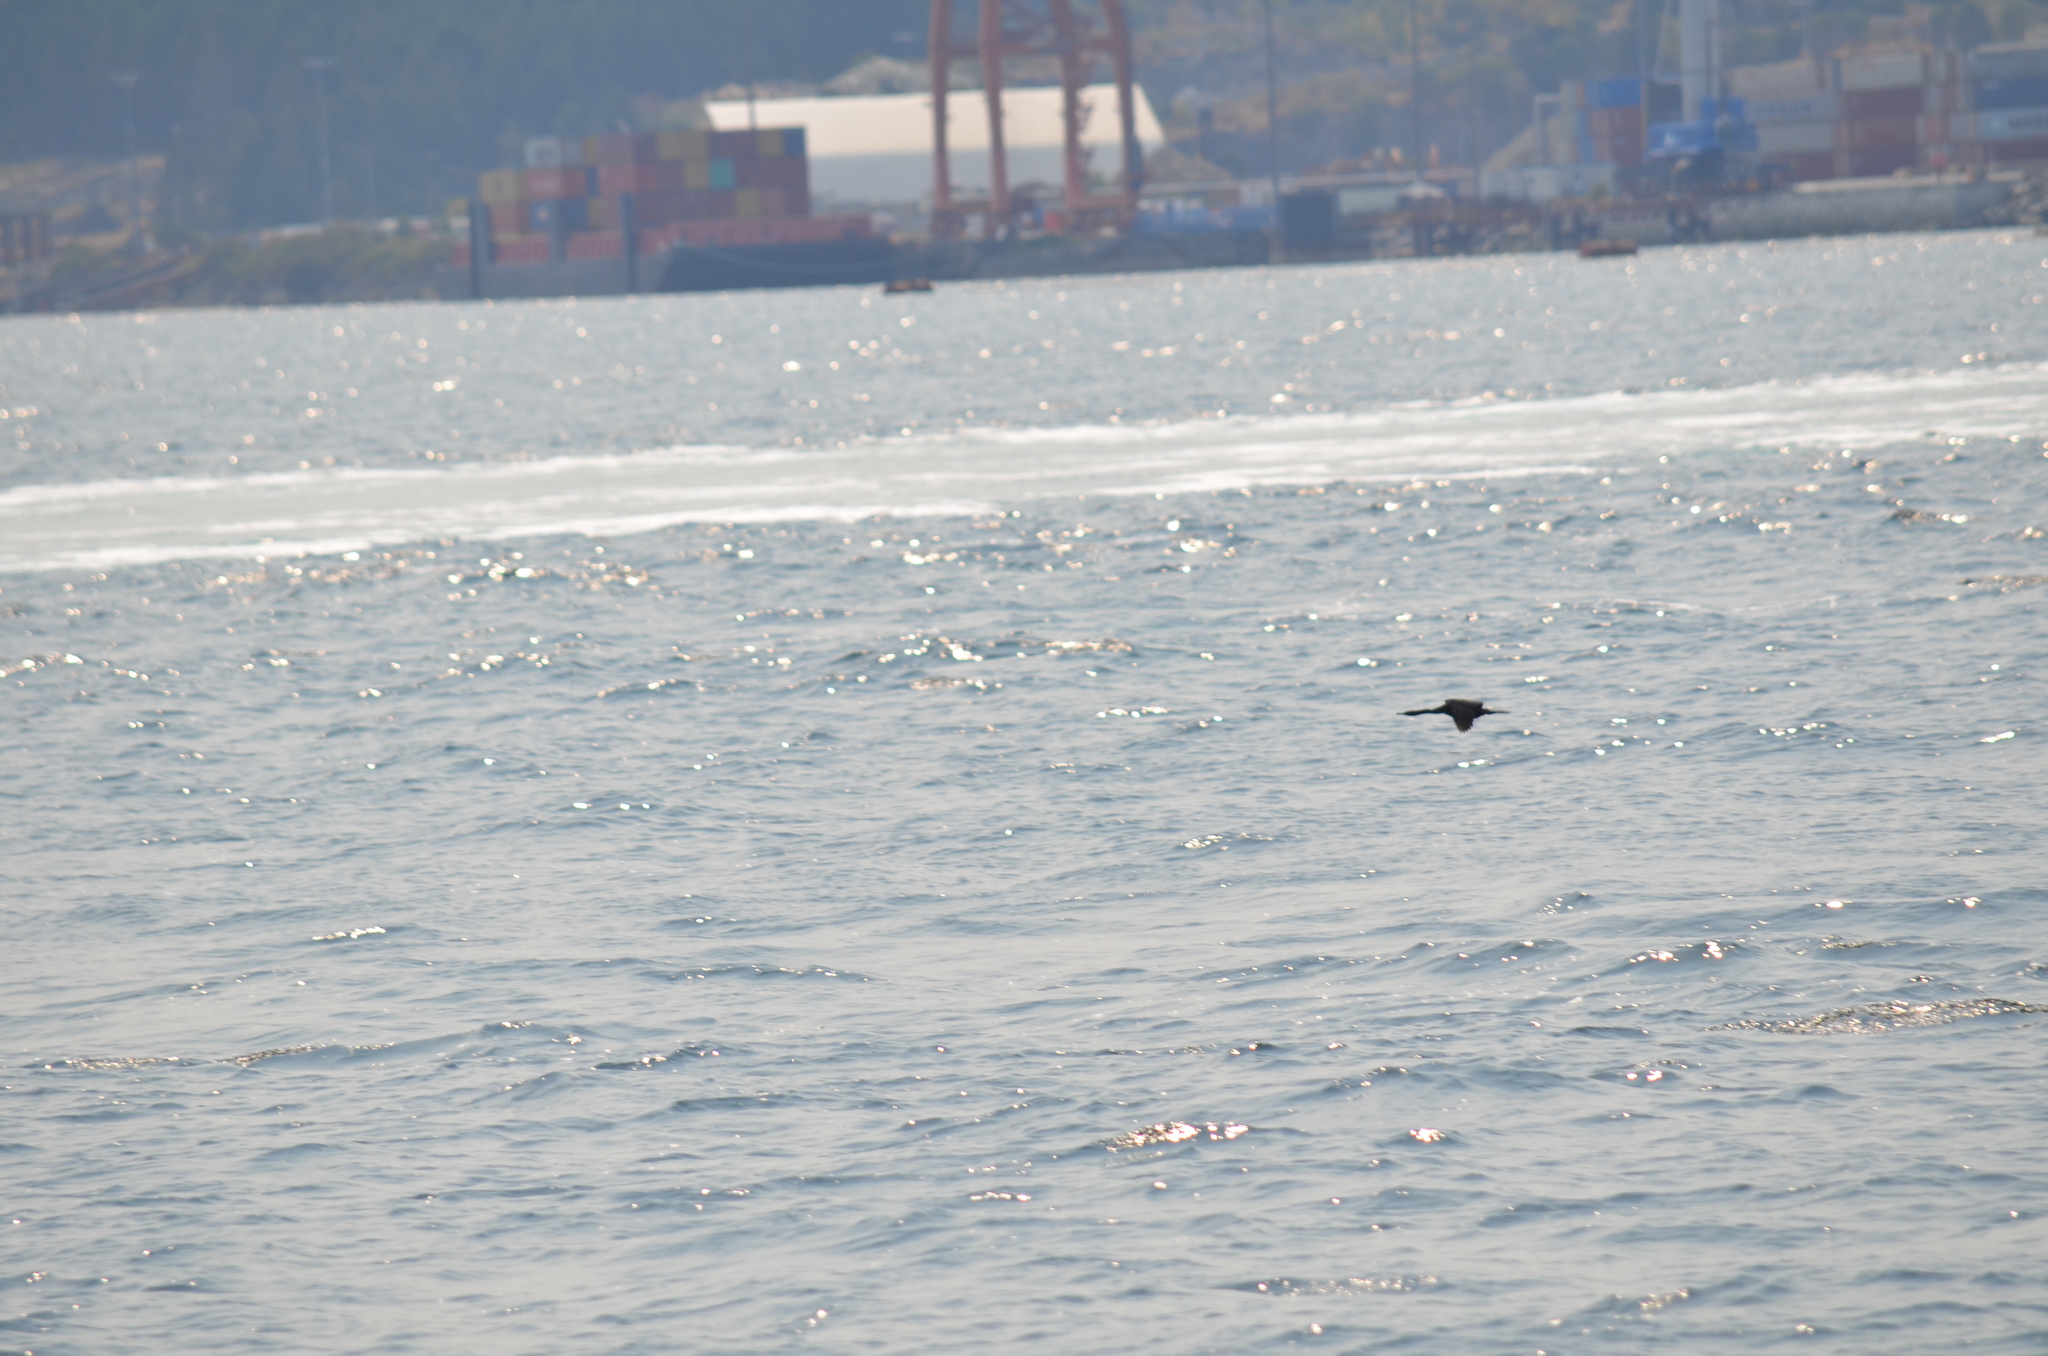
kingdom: Animalia
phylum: Chordata
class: Aves
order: Suliformes
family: Phalacrocoracidae
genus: Phalacrocorax
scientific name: Phalacrocorax pelagicus
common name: Pelagic cormorant
